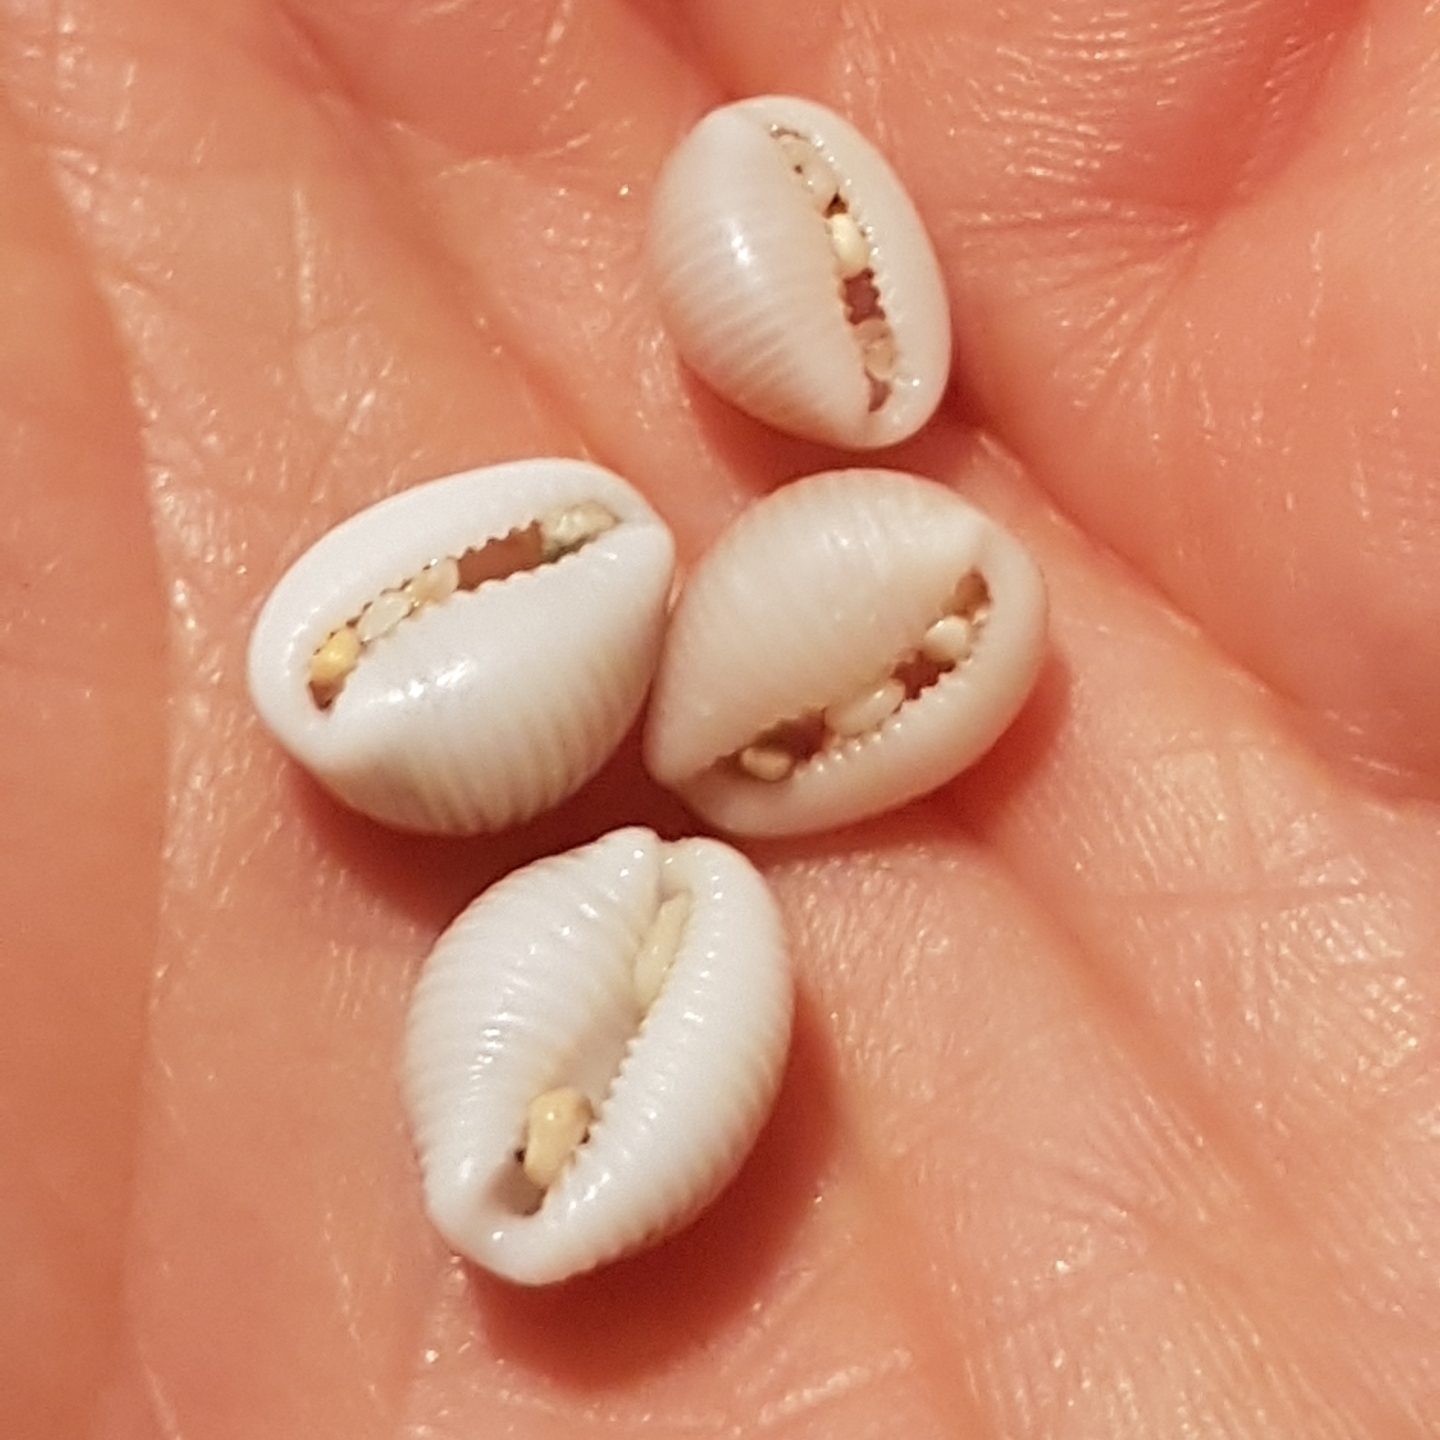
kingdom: Animalia
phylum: Mollusca
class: Gastropoda
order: Littorinimorpha
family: Triviidae
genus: Trivia
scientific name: Trivia monacha
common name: Spotted cowrie
